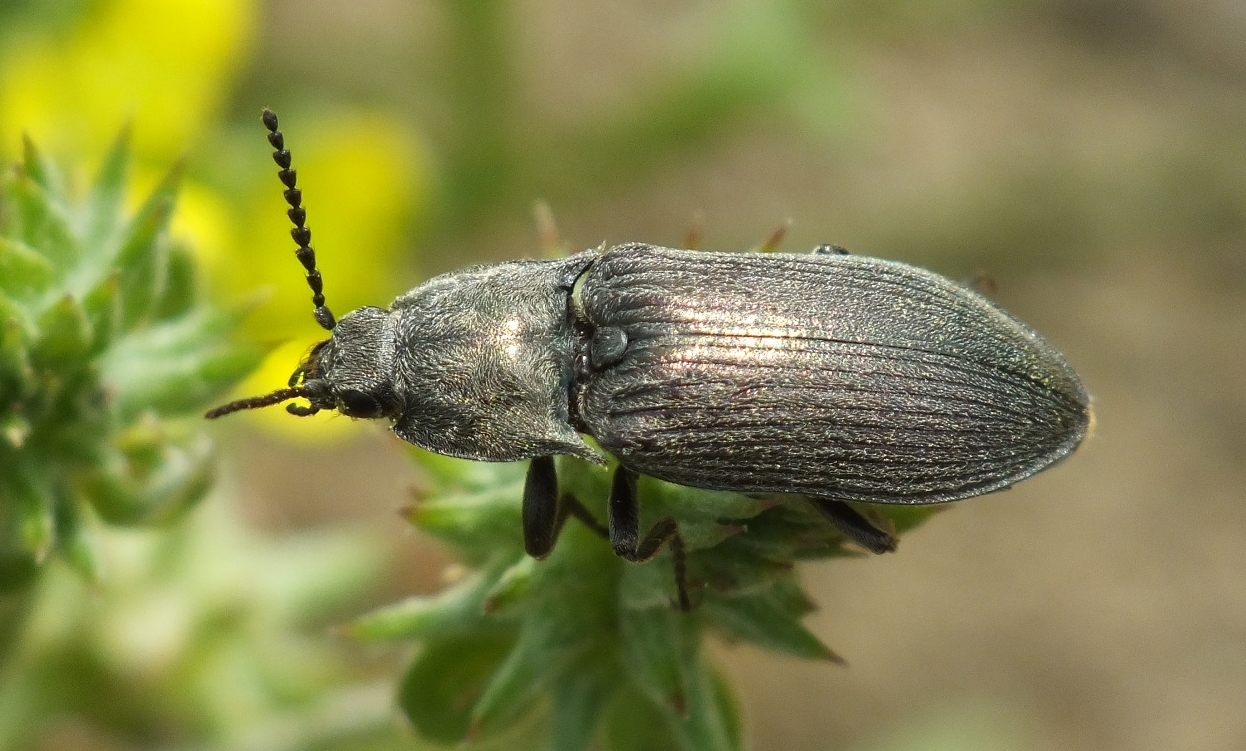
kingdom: Animalia
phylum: Arthropoda
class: Insecta
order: Coleoptera
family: Elateridae
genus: Selatosomus
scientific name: Selatosomus latus
